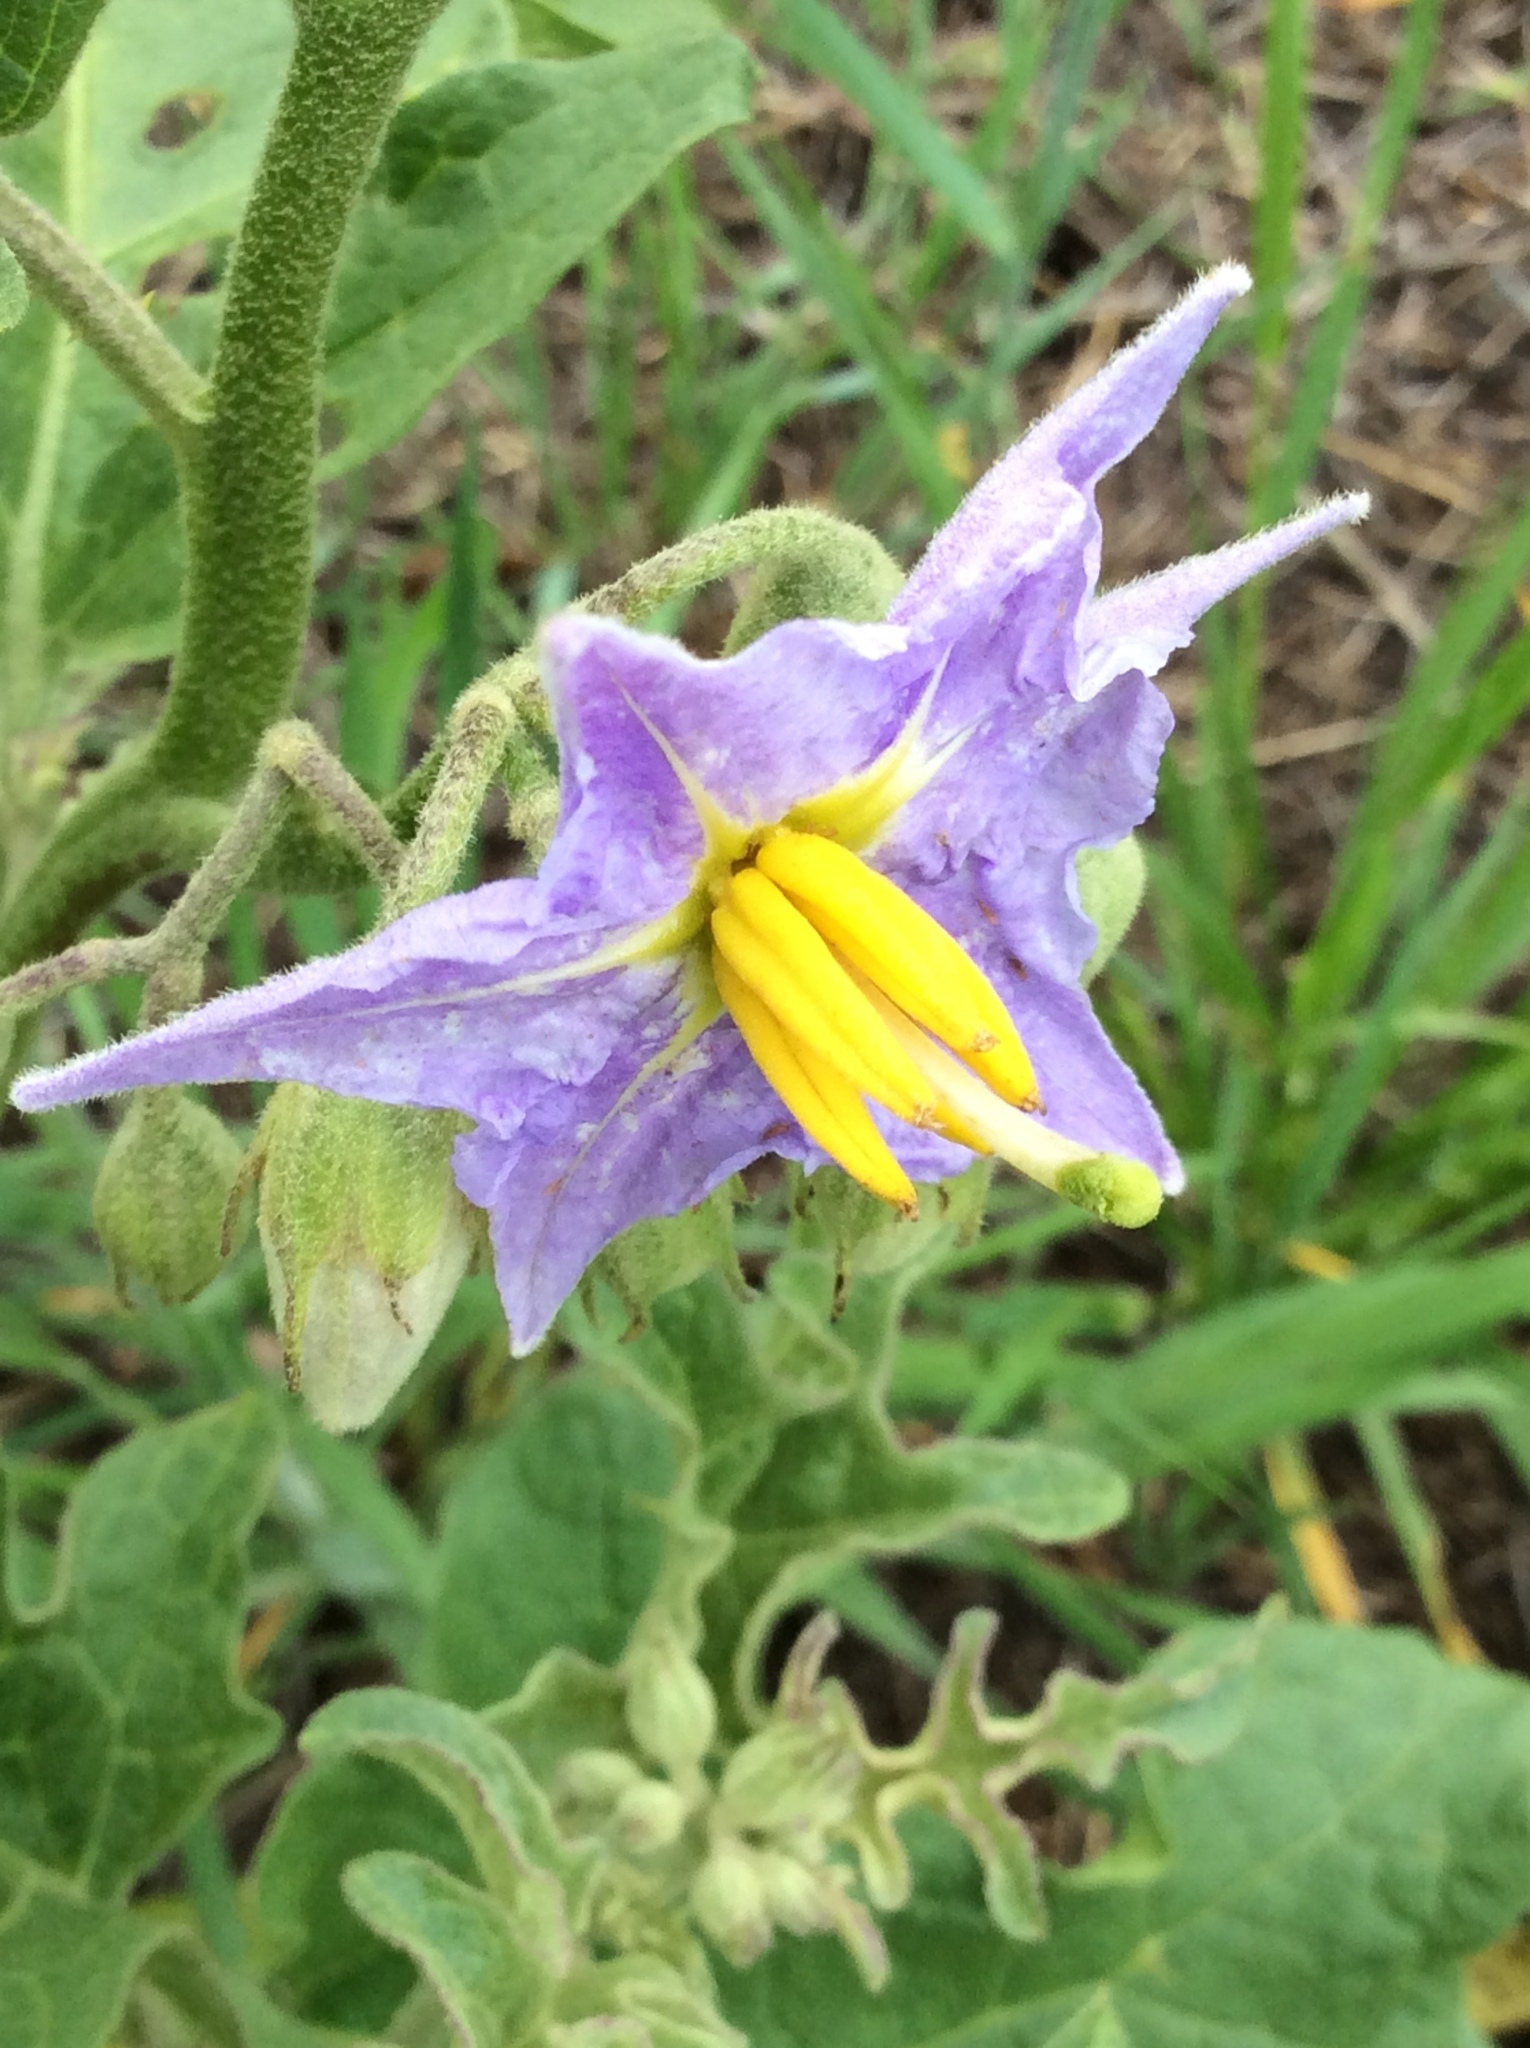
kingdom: Plantae
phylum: Tracheophyta
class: Magnoliopsida
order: Solanales
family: Solanaceae
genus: Solanum
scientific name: Solanum dimidiatum
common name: Carolina horse-nettle
